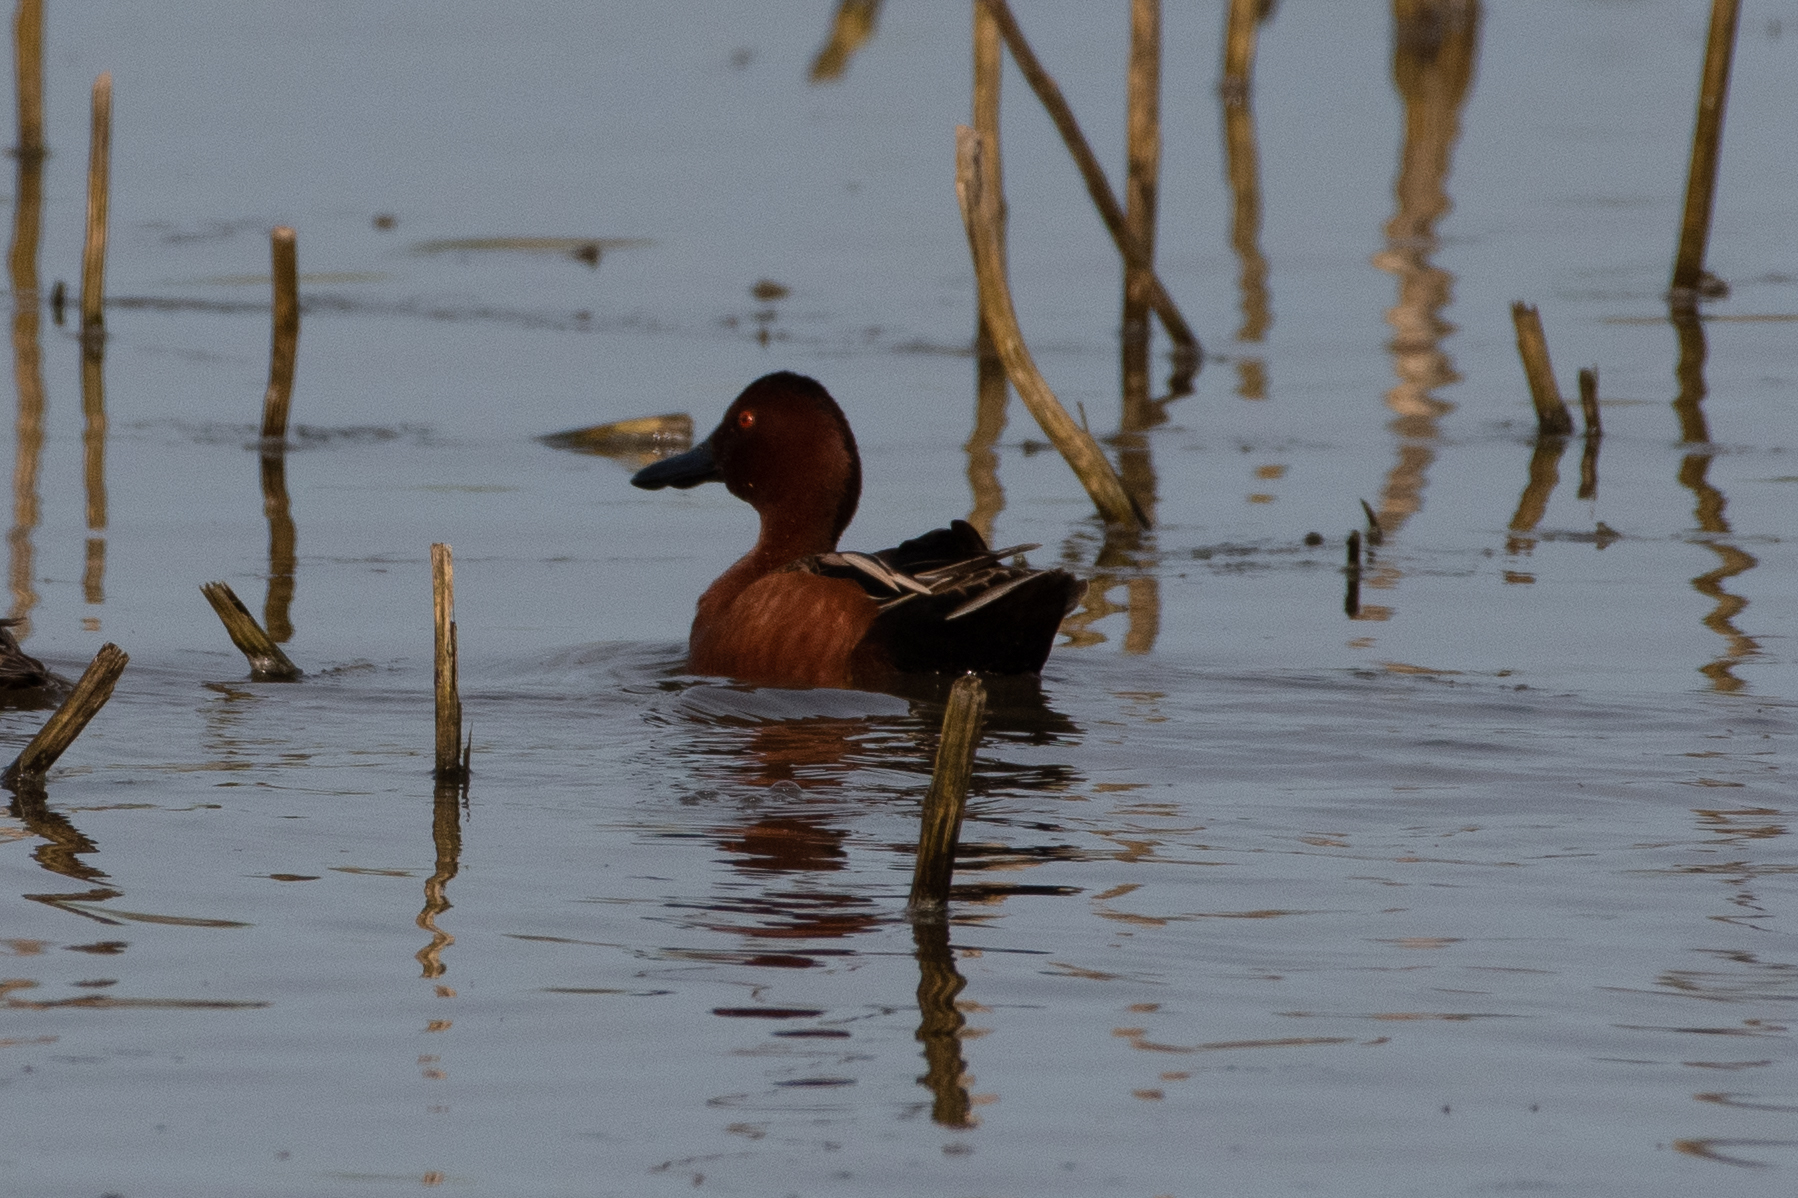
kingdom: Animalia
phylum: Chordata
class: Aves
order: Anseriformes
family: Anatidae
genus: Spatula
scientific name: Spatula cyanoptera
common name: Cinnamon teal
